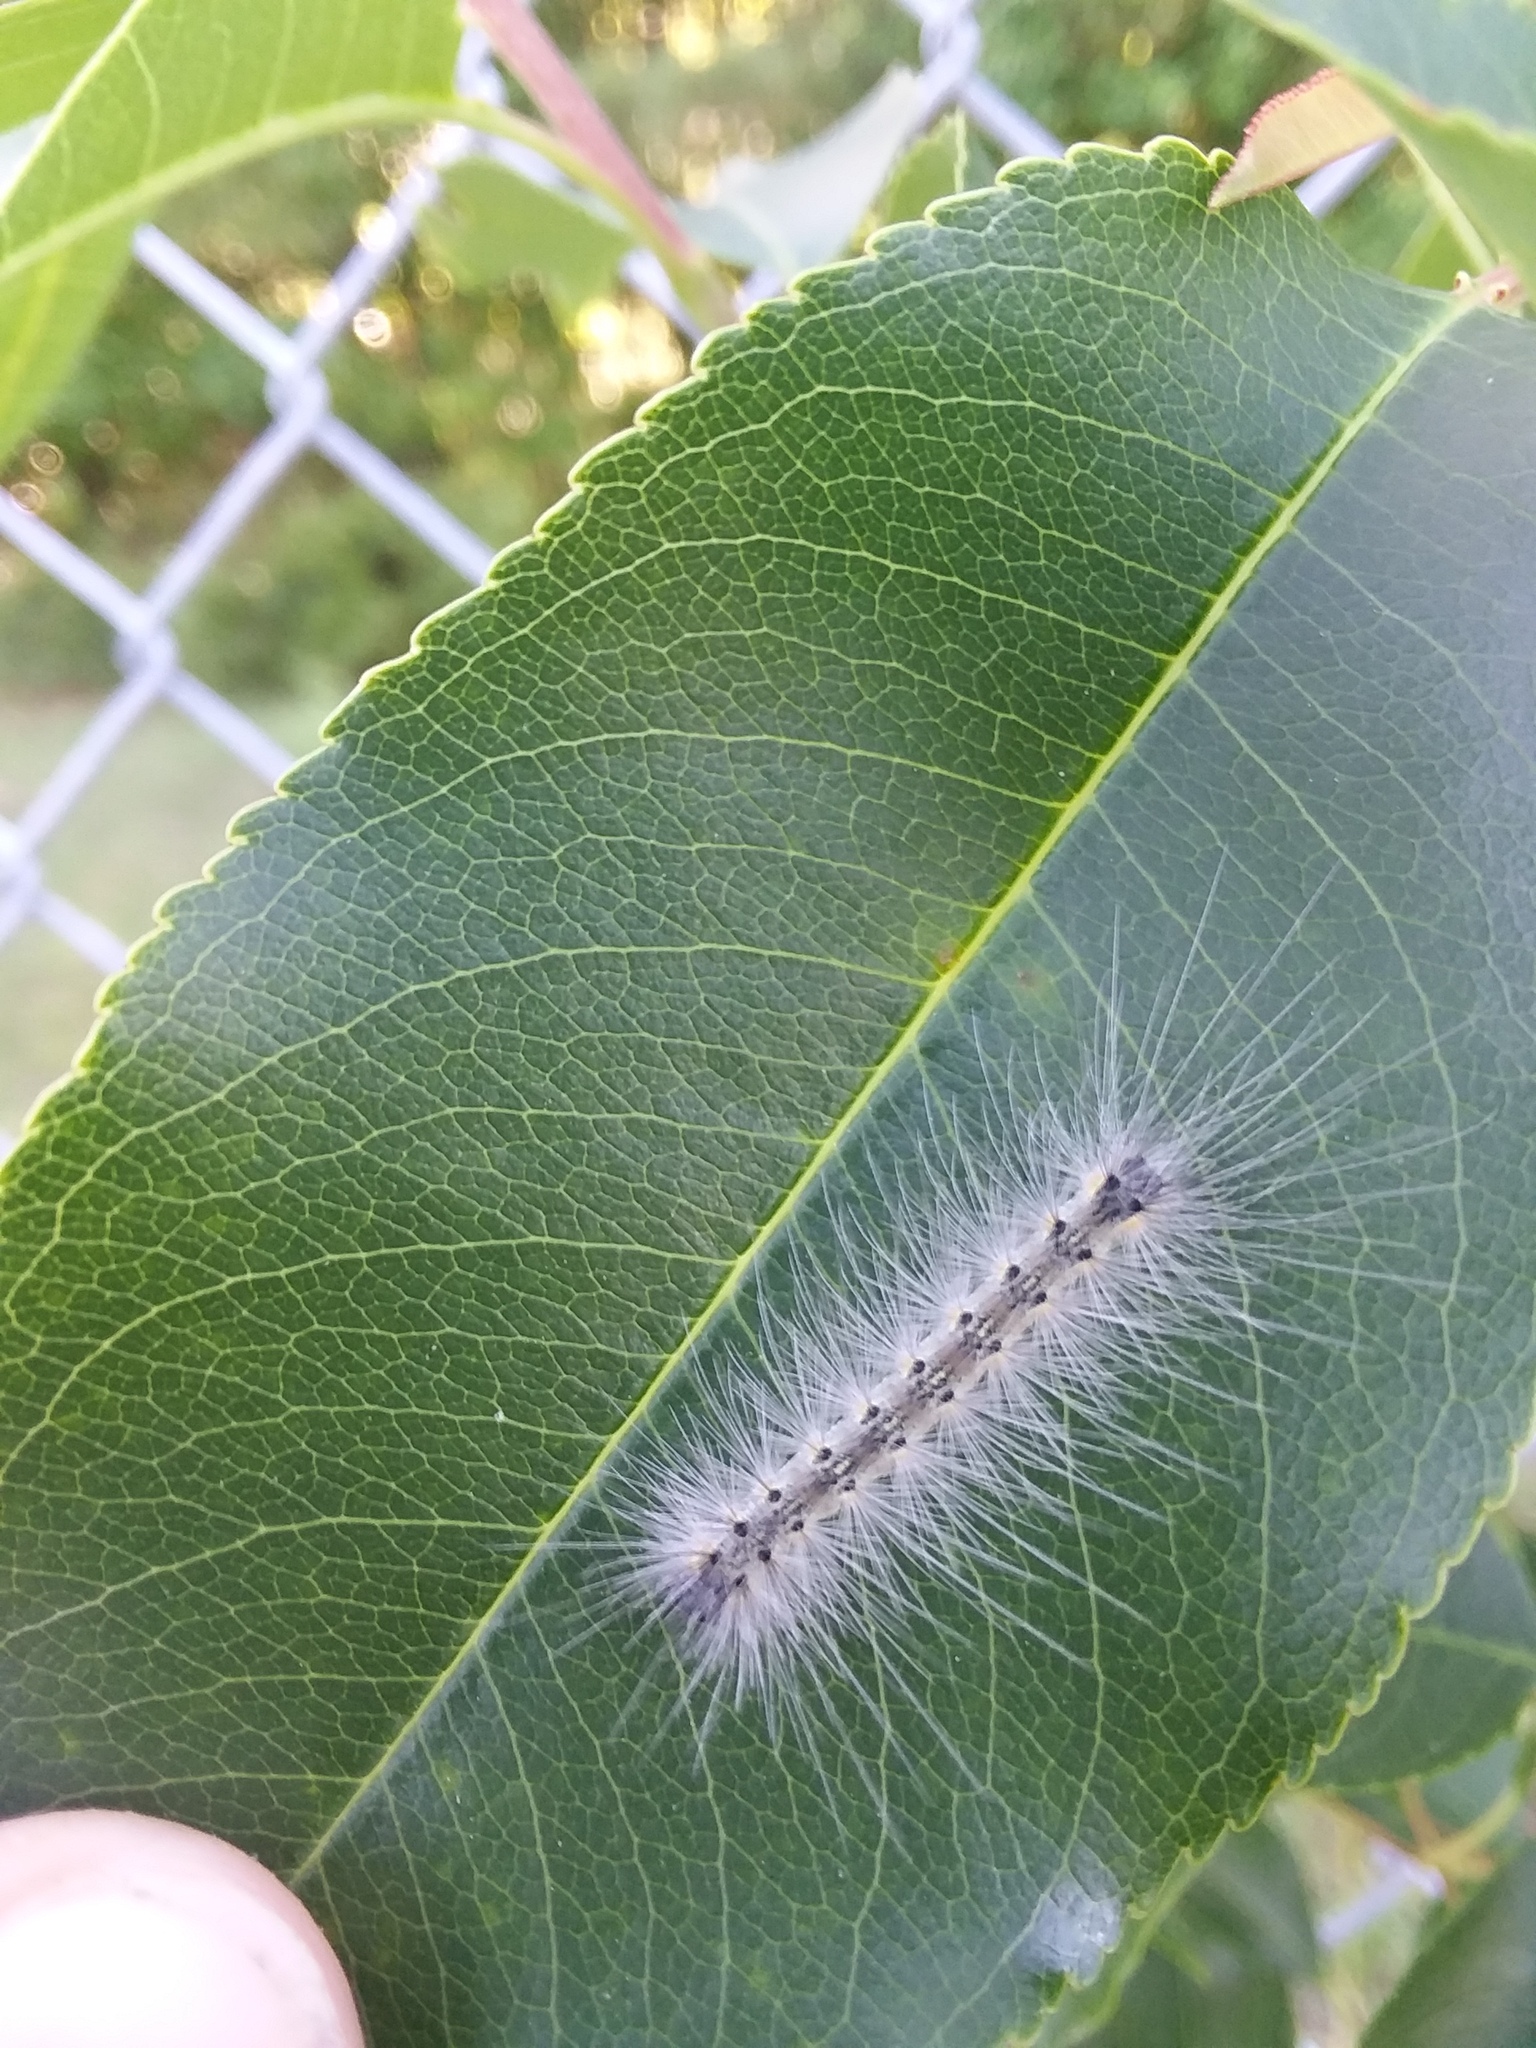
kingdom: Animalia
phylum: Arthropoda
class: Insecta
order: Lepidoptera
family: Erebidae
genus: Hyphantria
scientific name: Hyphantria cunea
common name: American white moth
